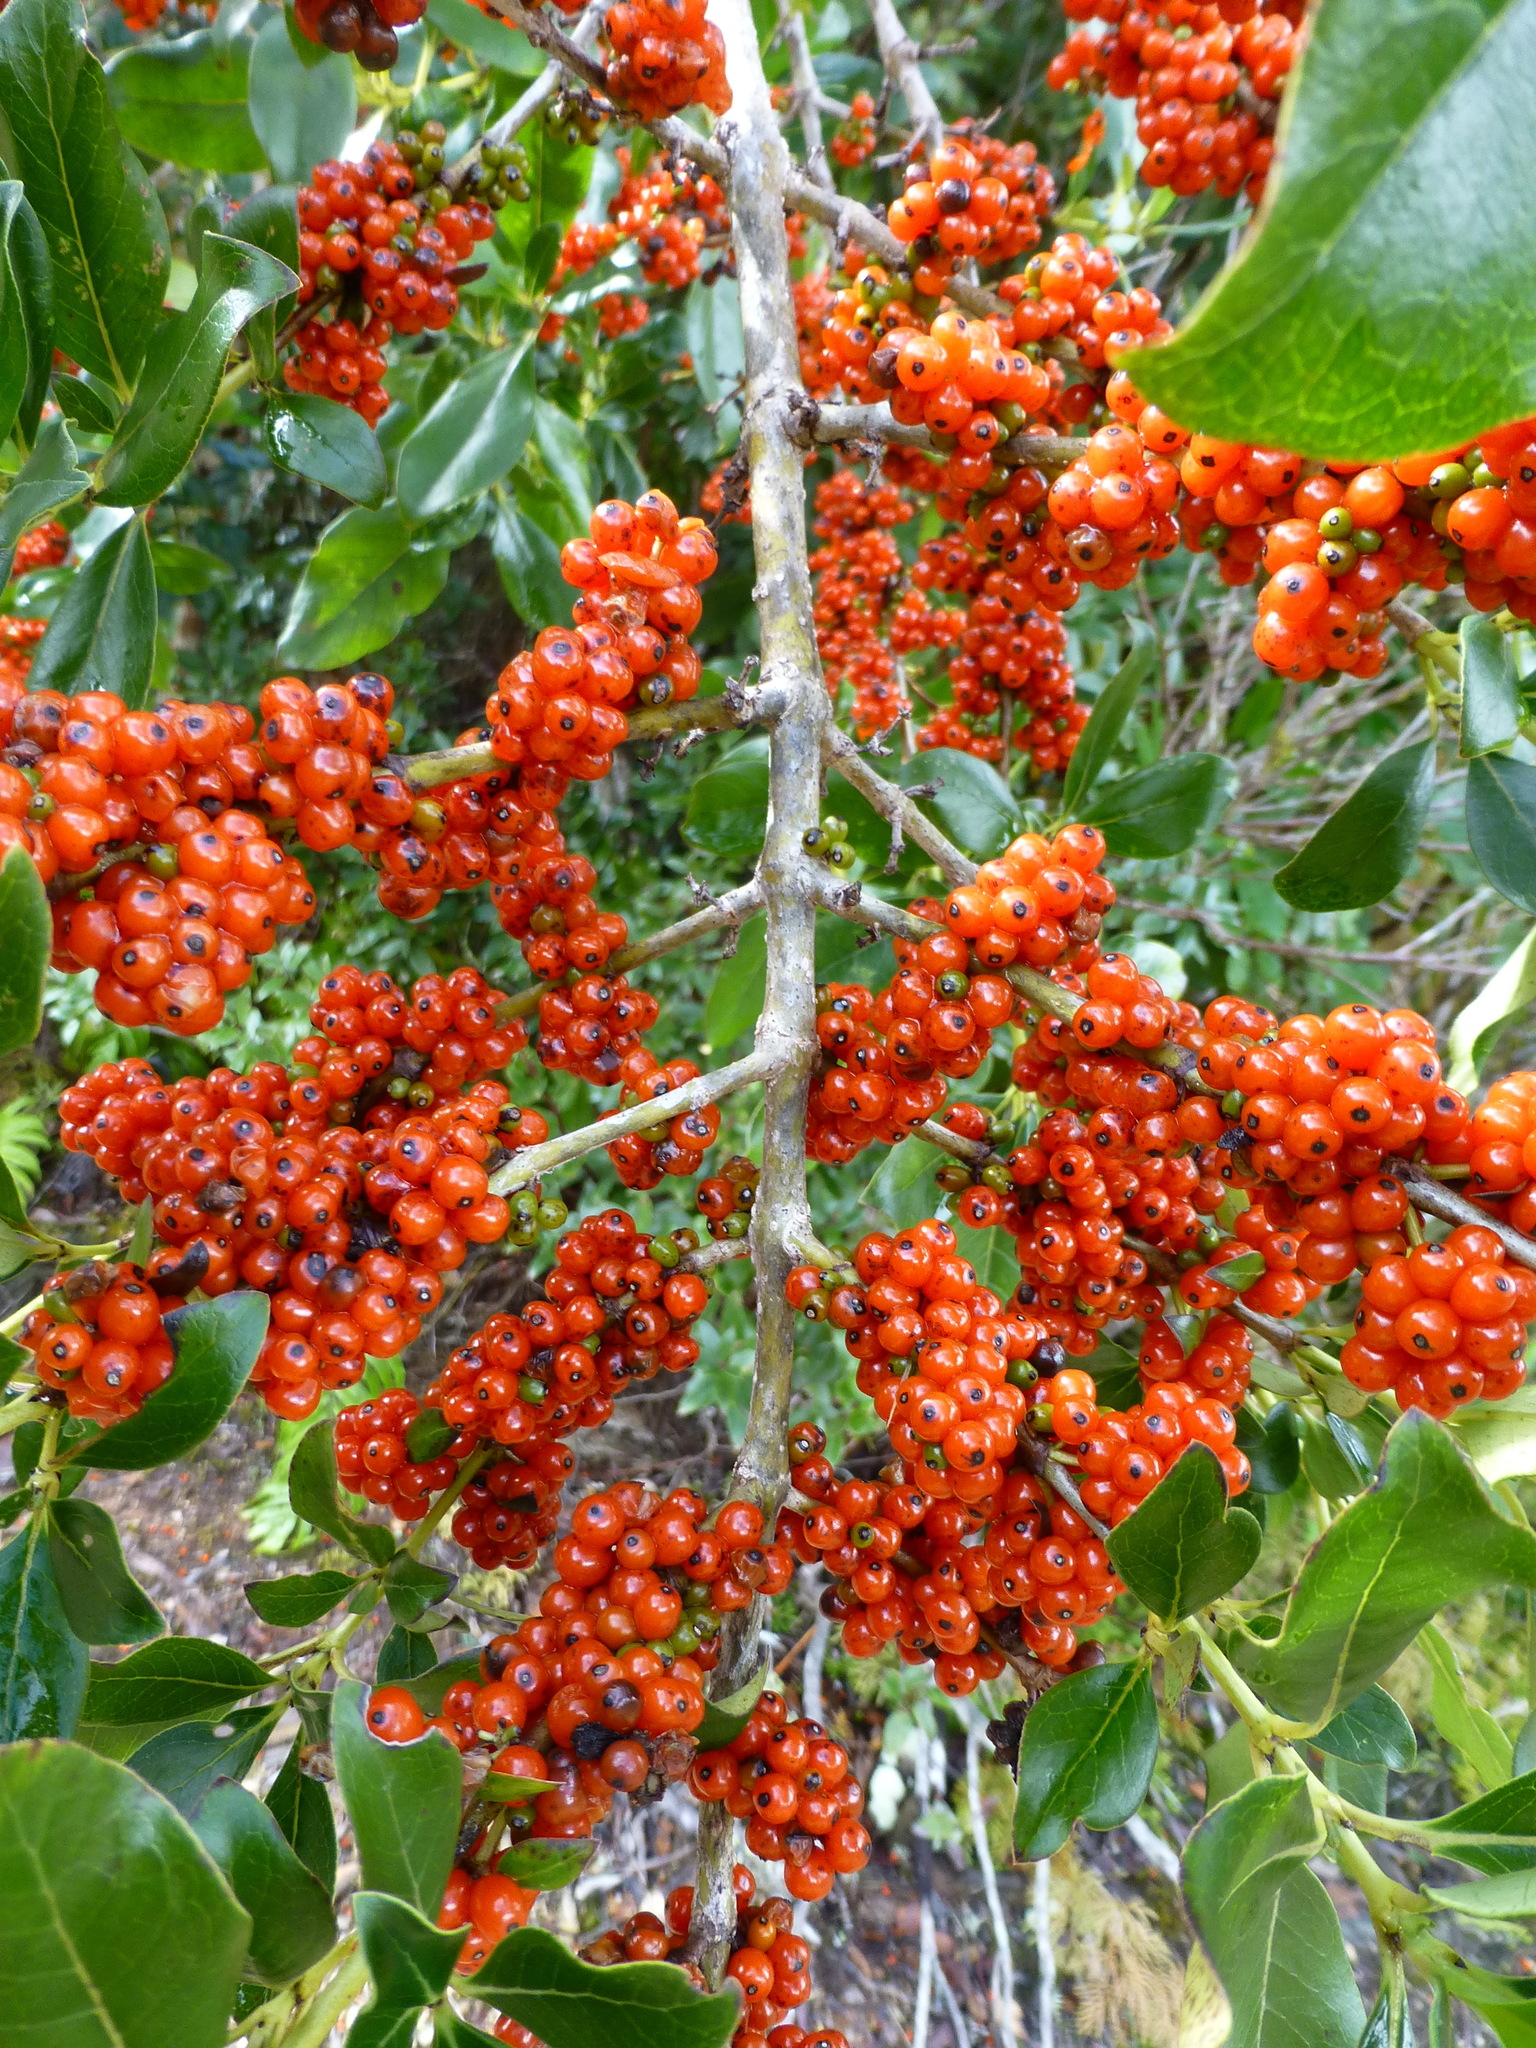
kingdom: Plantae
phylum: Tracheophyta
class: Magnoliopsida
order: Gentianales
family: Rubiaceae
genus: Coprosma
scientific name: Coprosma robusta
